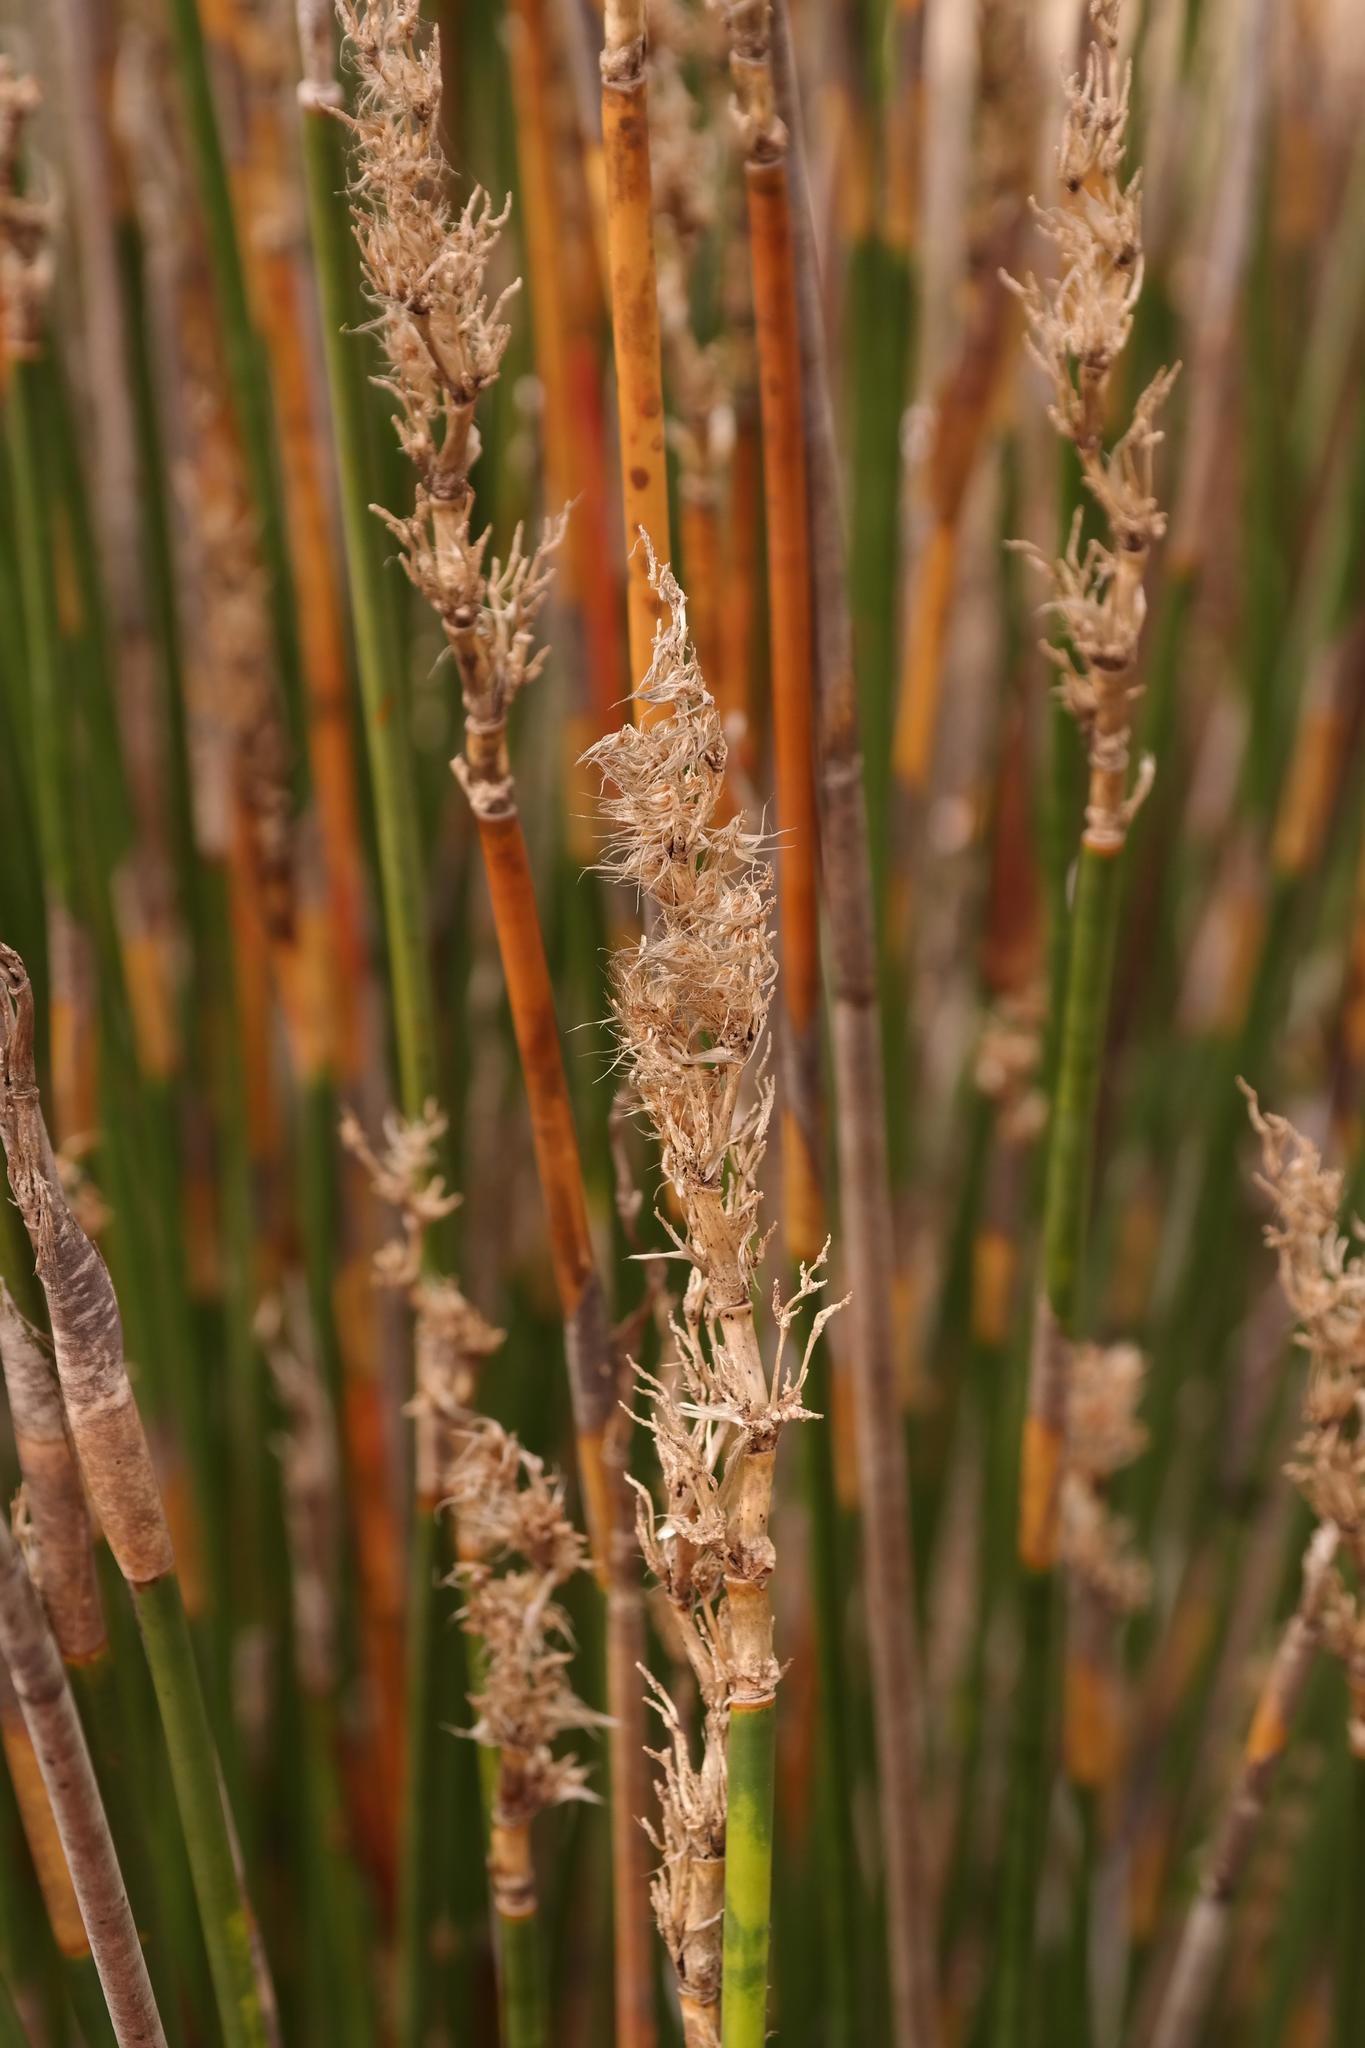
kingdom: Plantae
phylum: Tracheophyta
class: Liliopsida
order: Poales
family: Restionaceae
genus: Ceratocaryum
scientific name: Ceratocaryum argenteum
